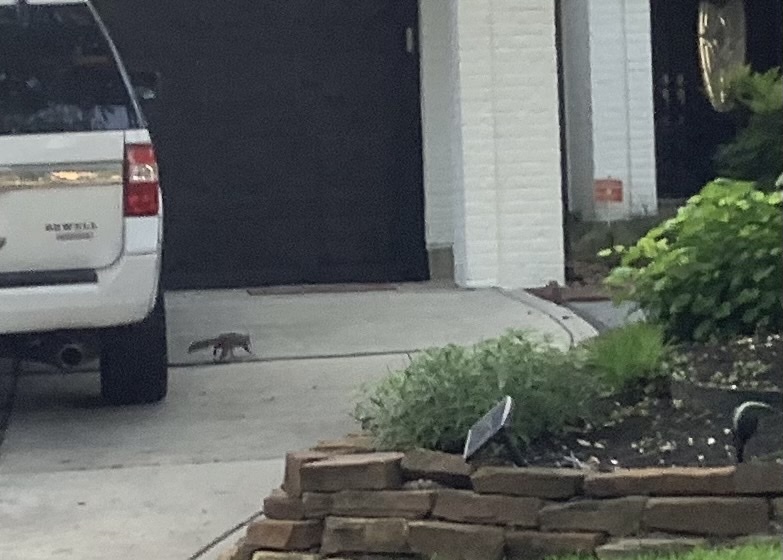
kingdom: Animalia
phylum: Chordata
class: Mammalia
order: Rodentia
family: Sciuridae
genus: Sciurus
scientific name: Sciurus carolinensis
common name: Eastern gray squirrel
